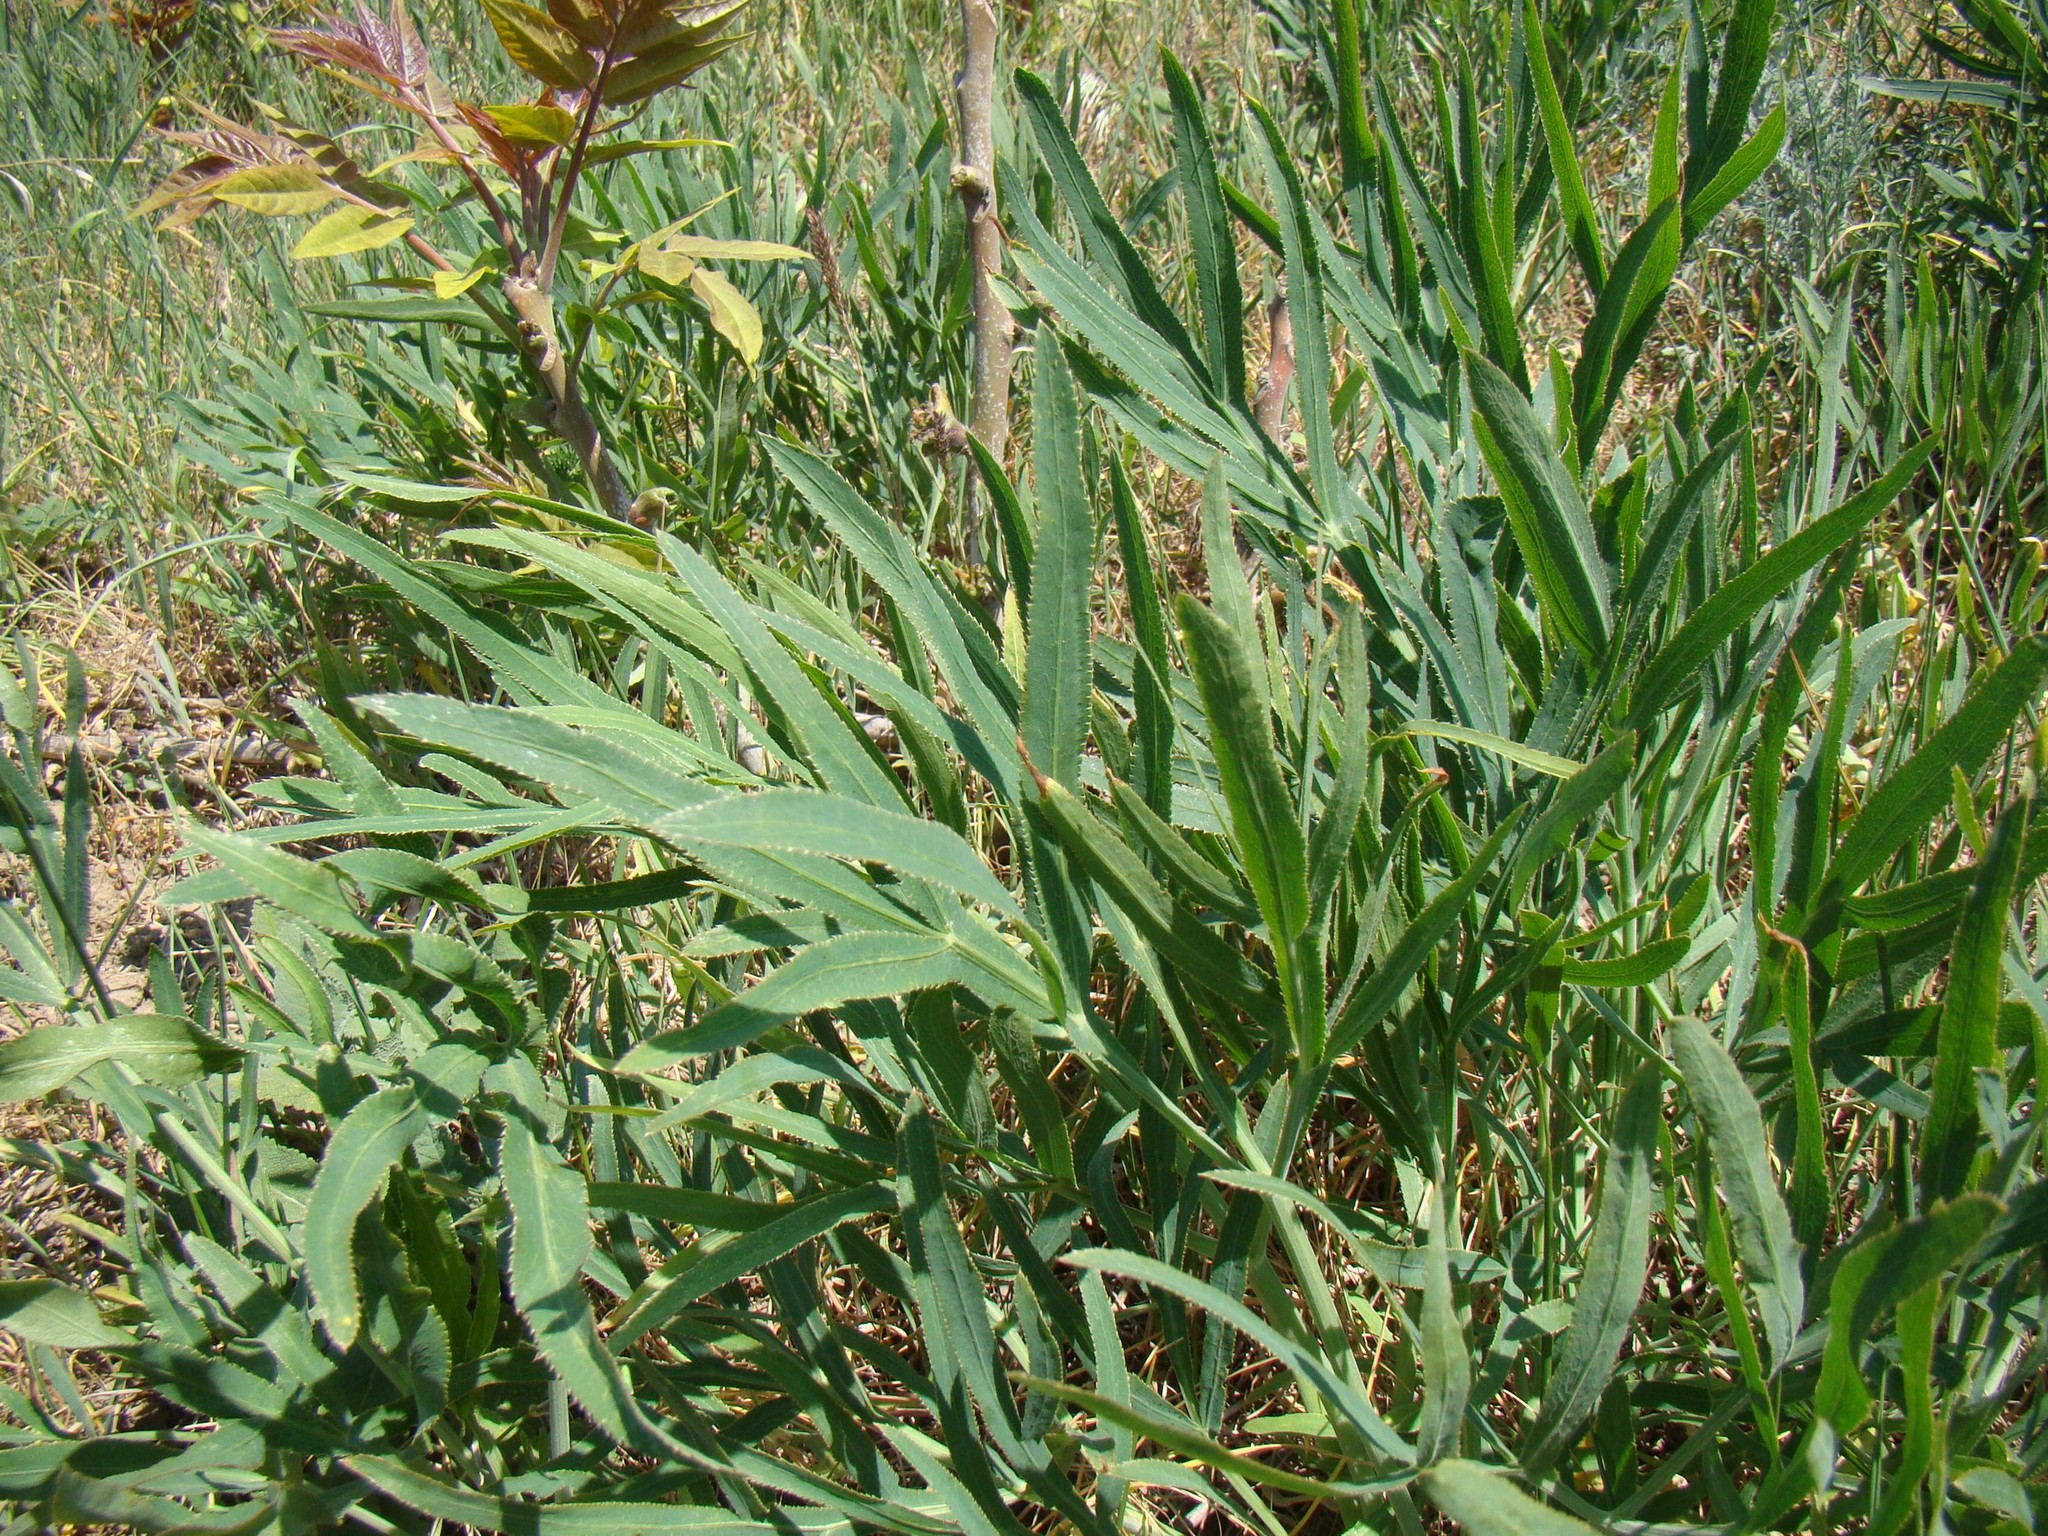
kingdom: Plantae
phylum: Tracheophyta
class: Magnoliopsida
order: Apiales
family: Apiaceae
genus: Falcaria
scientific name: Falcaria vulgaris
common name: Longleaf
